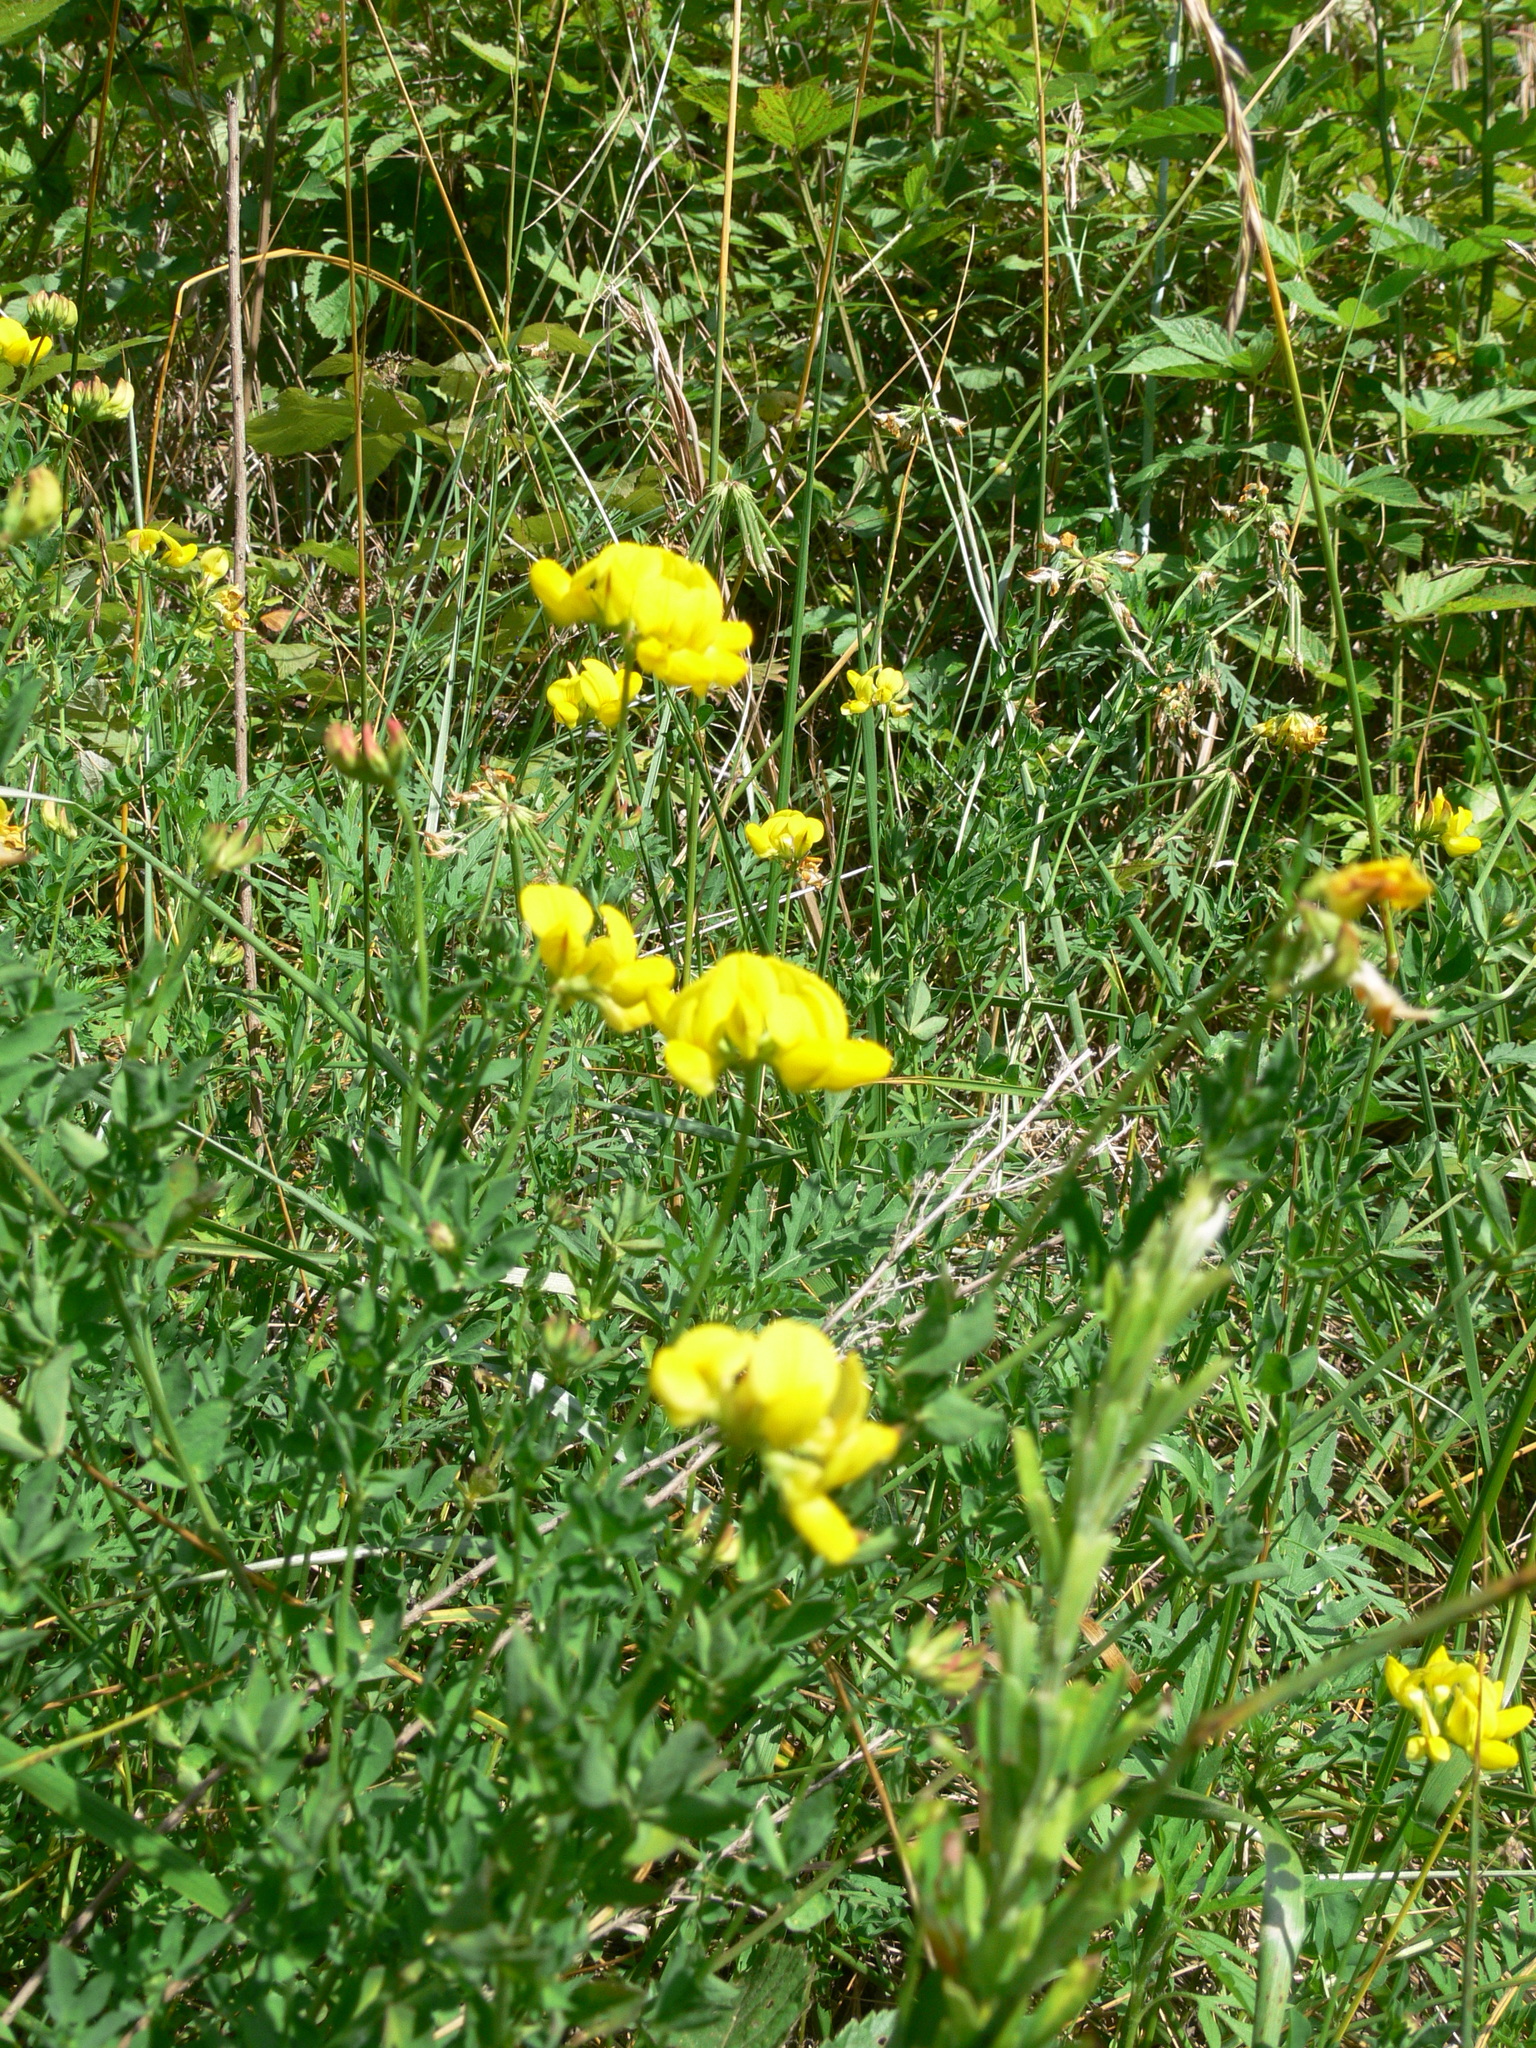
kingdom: Plantae
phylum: Tracheophyta
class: Magnoliopsida
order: Fabales
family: Fabaceae
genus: Lotus
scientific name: Lotus corniculatus
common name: Common bird's-foot-trefoil
